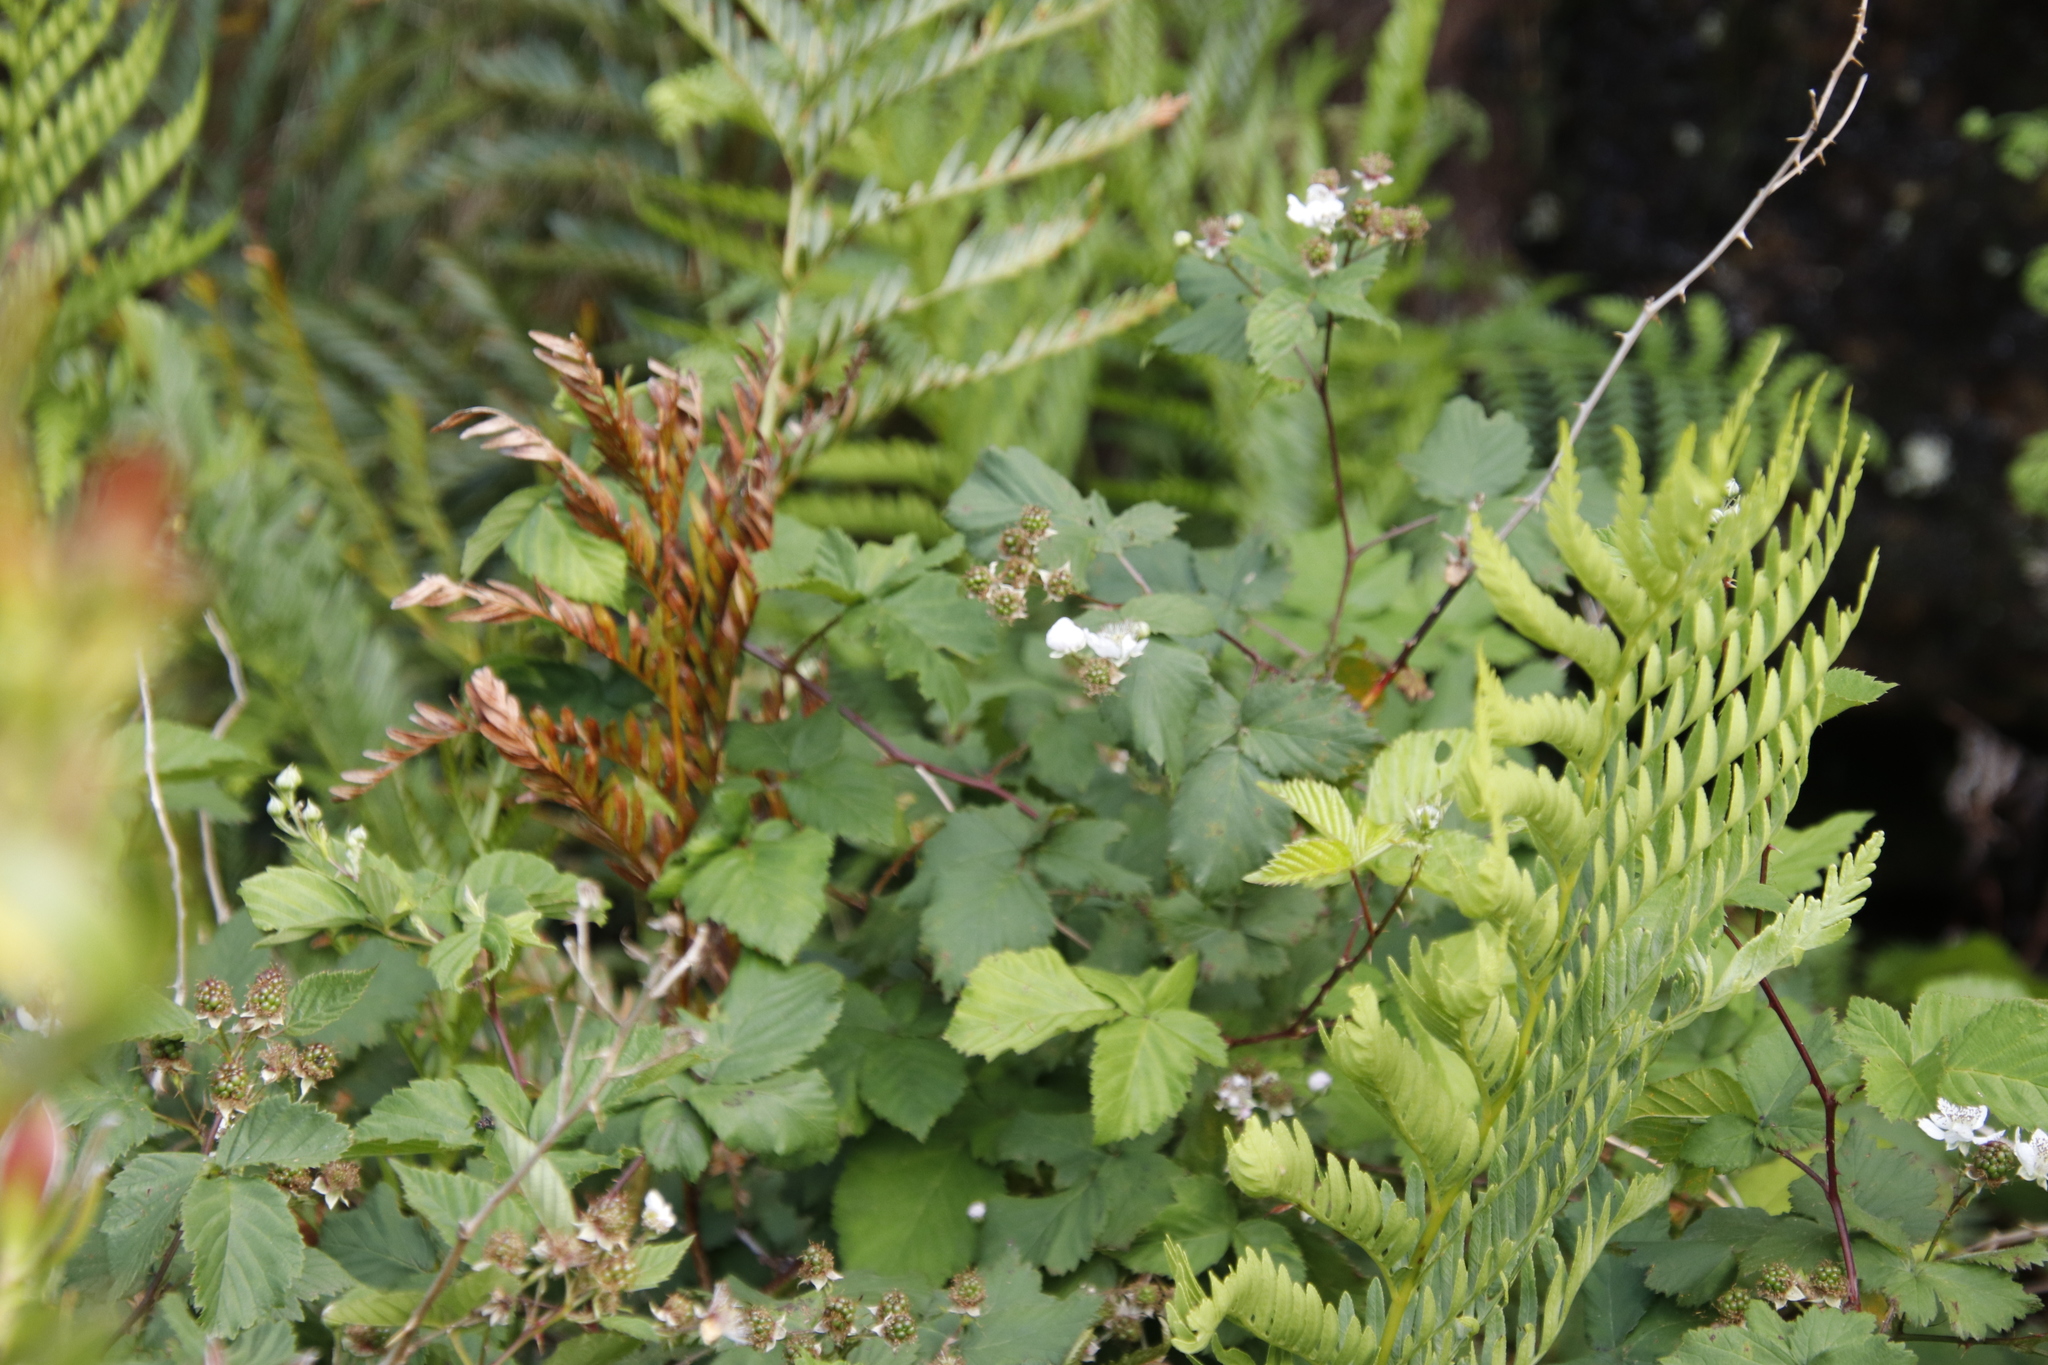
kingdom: Plantae
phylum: Tracheophyta
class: Magnoliopsida
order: Rosales
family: Rosaceae
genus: Rubus
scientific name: Rubus affinis
